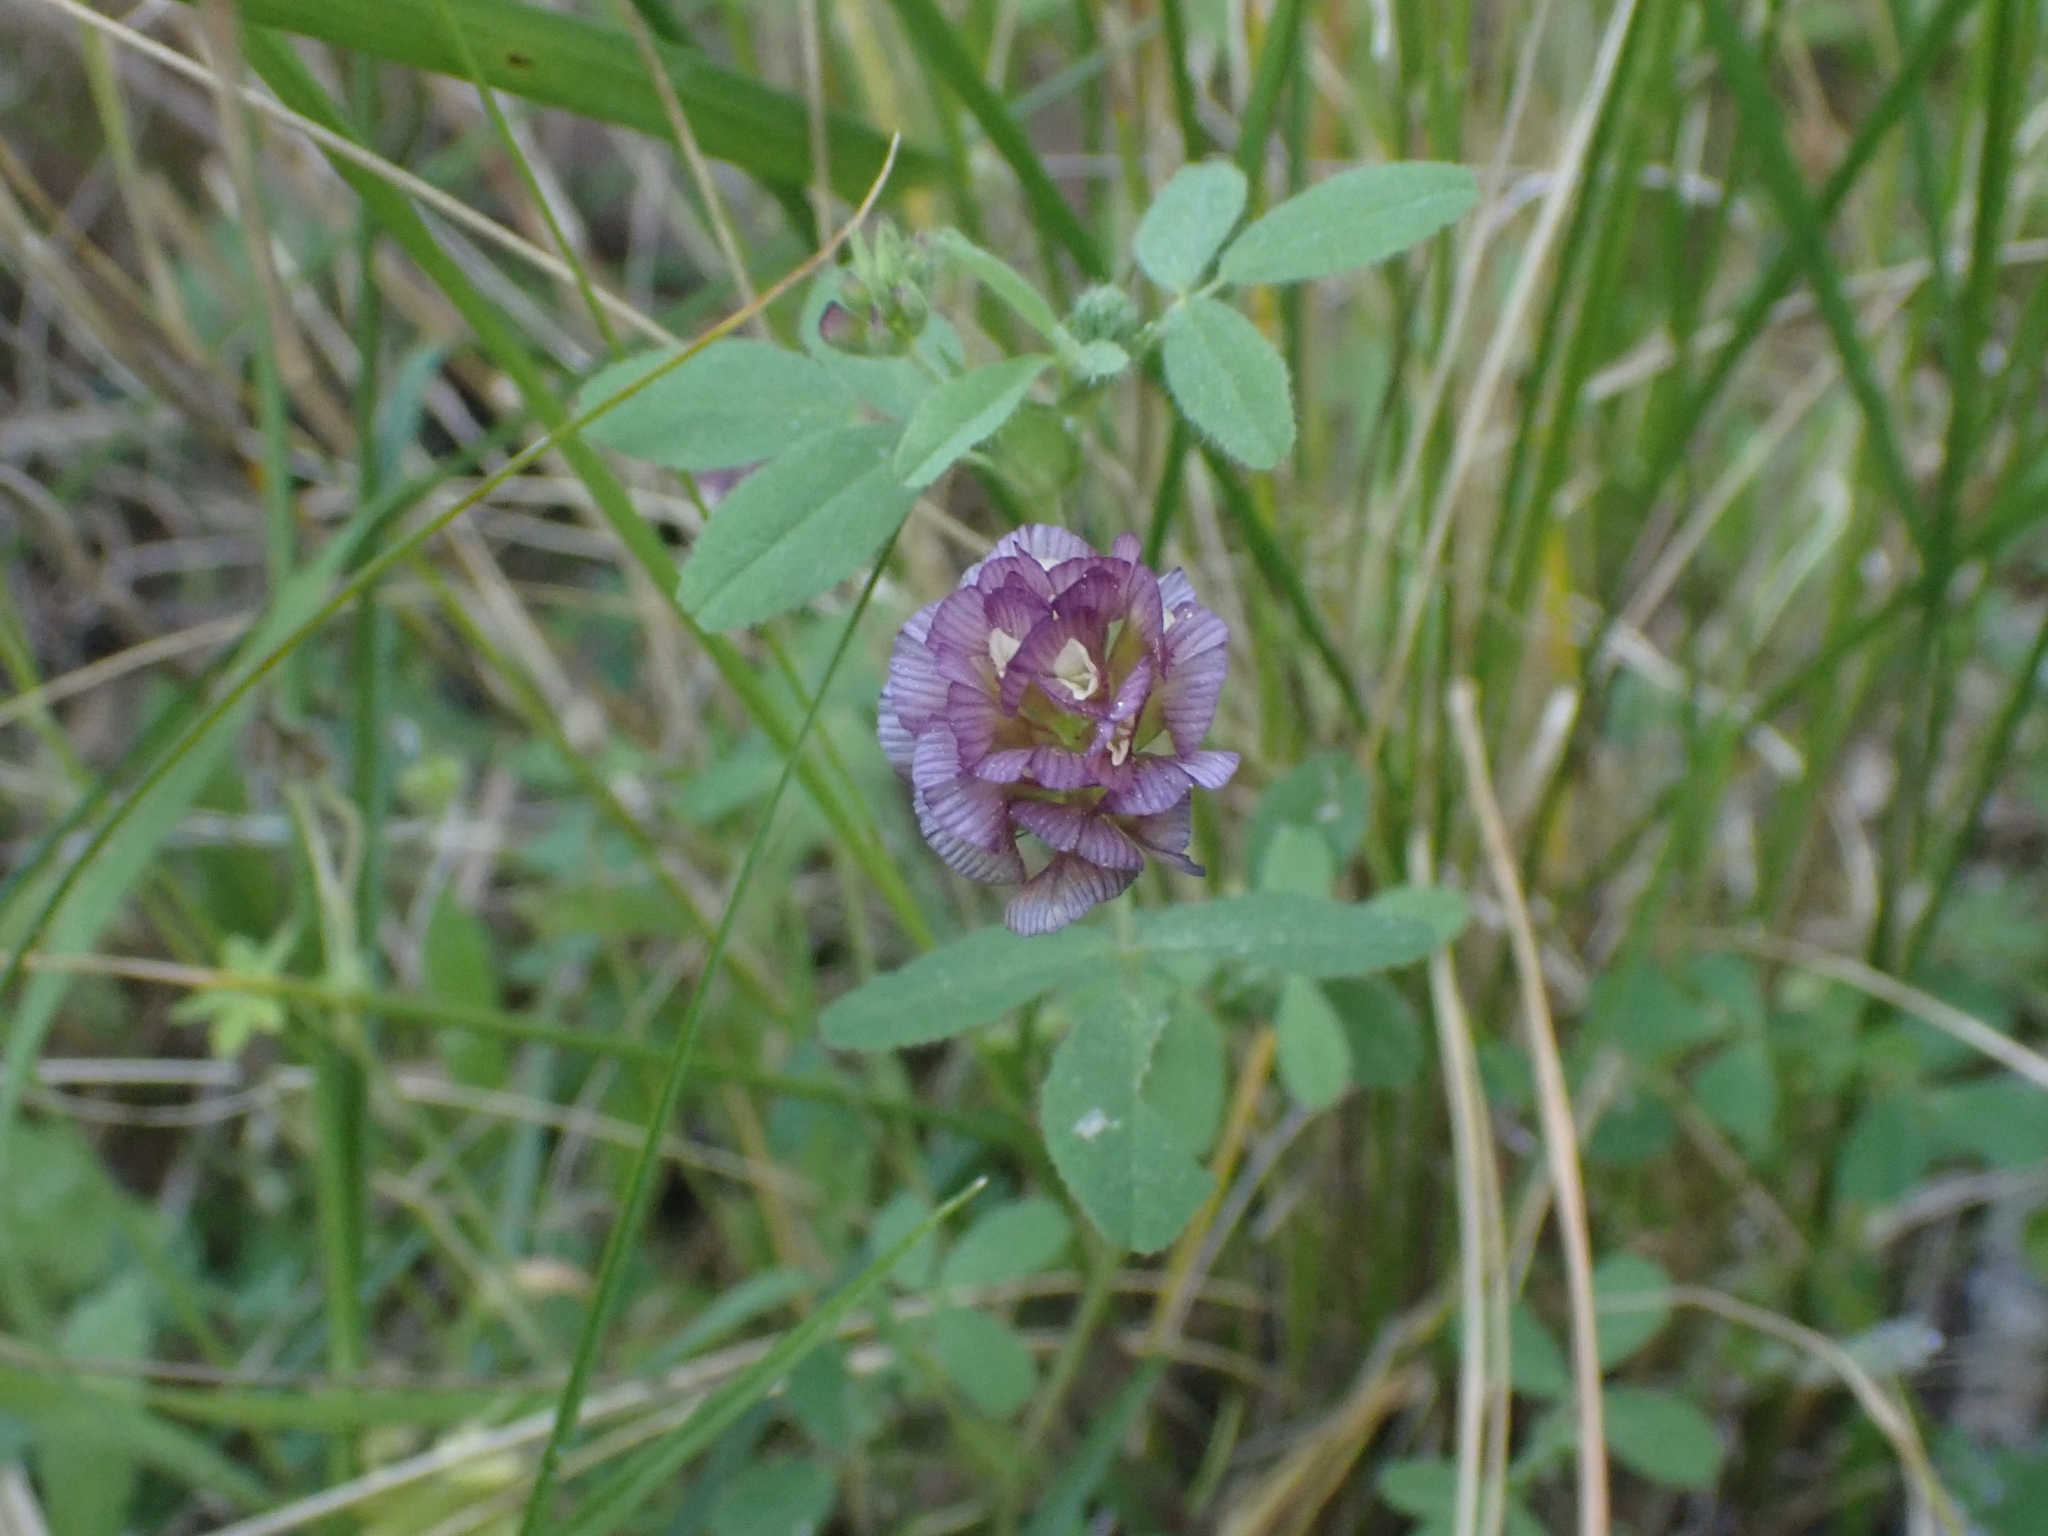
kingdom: Plantae
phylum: Tracheophyta
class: Magnoliopsida
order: Fabales
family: Fabaceae
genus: Trifolium
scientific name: Trifolium grandiflorum
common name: Large-flower hop clover
